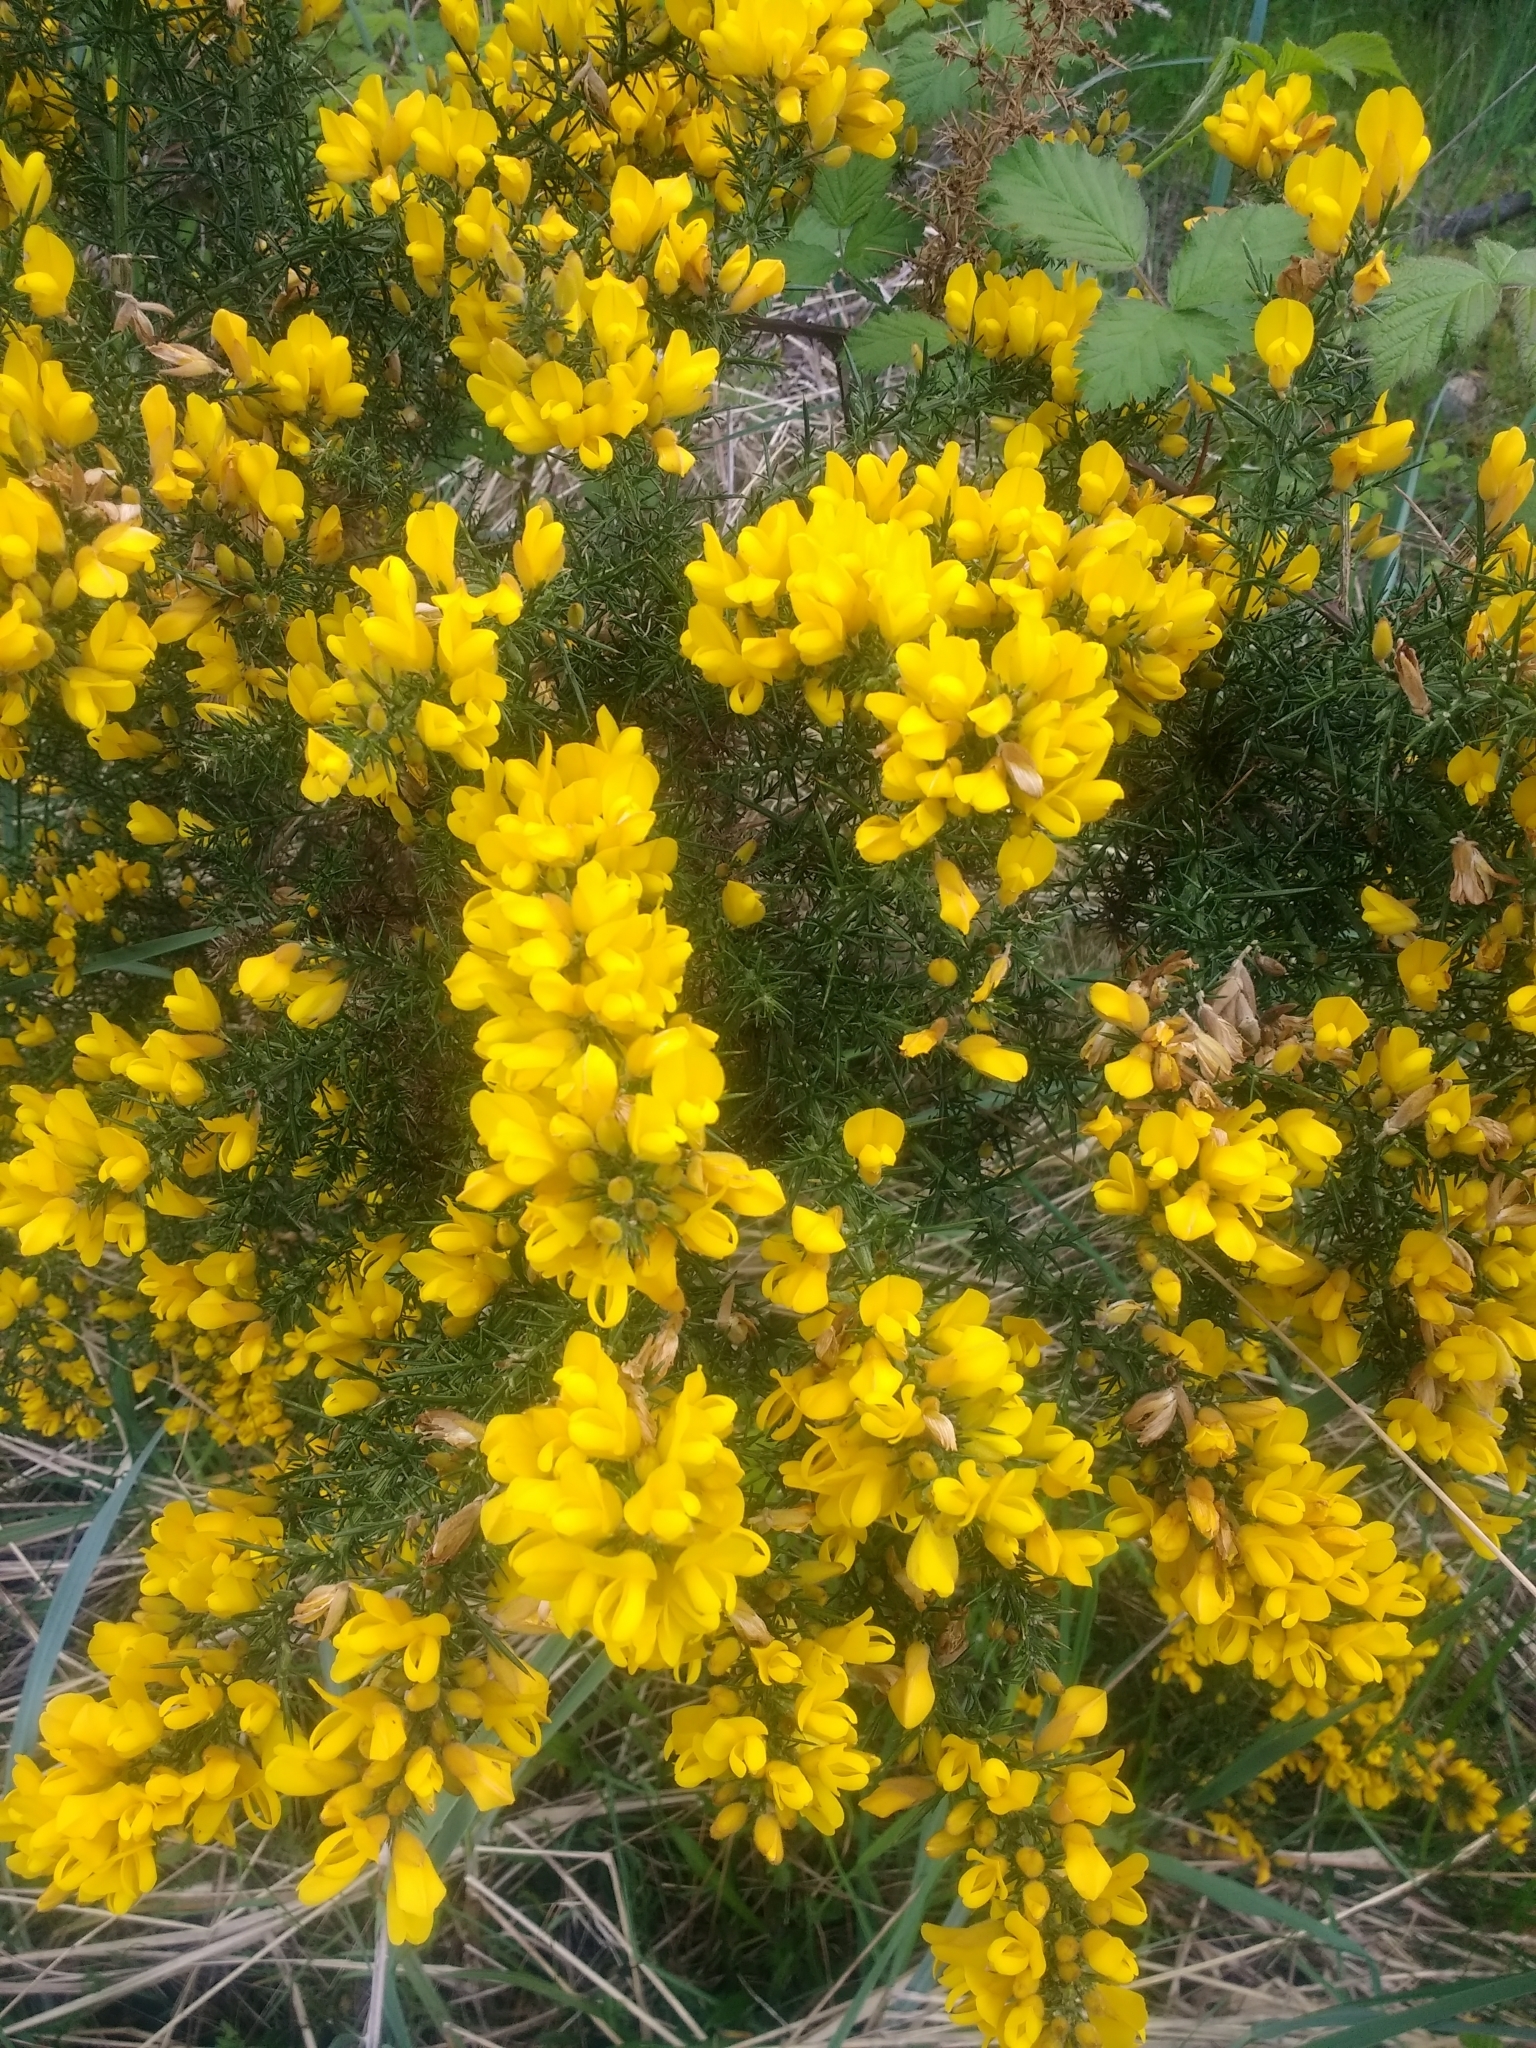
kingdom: Plantae
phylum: Tracheophyta
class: Magnoliopsida
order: Fabales
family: Fabaceae
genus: Ulex
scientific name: Ulex europaeus
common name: Common gorse
